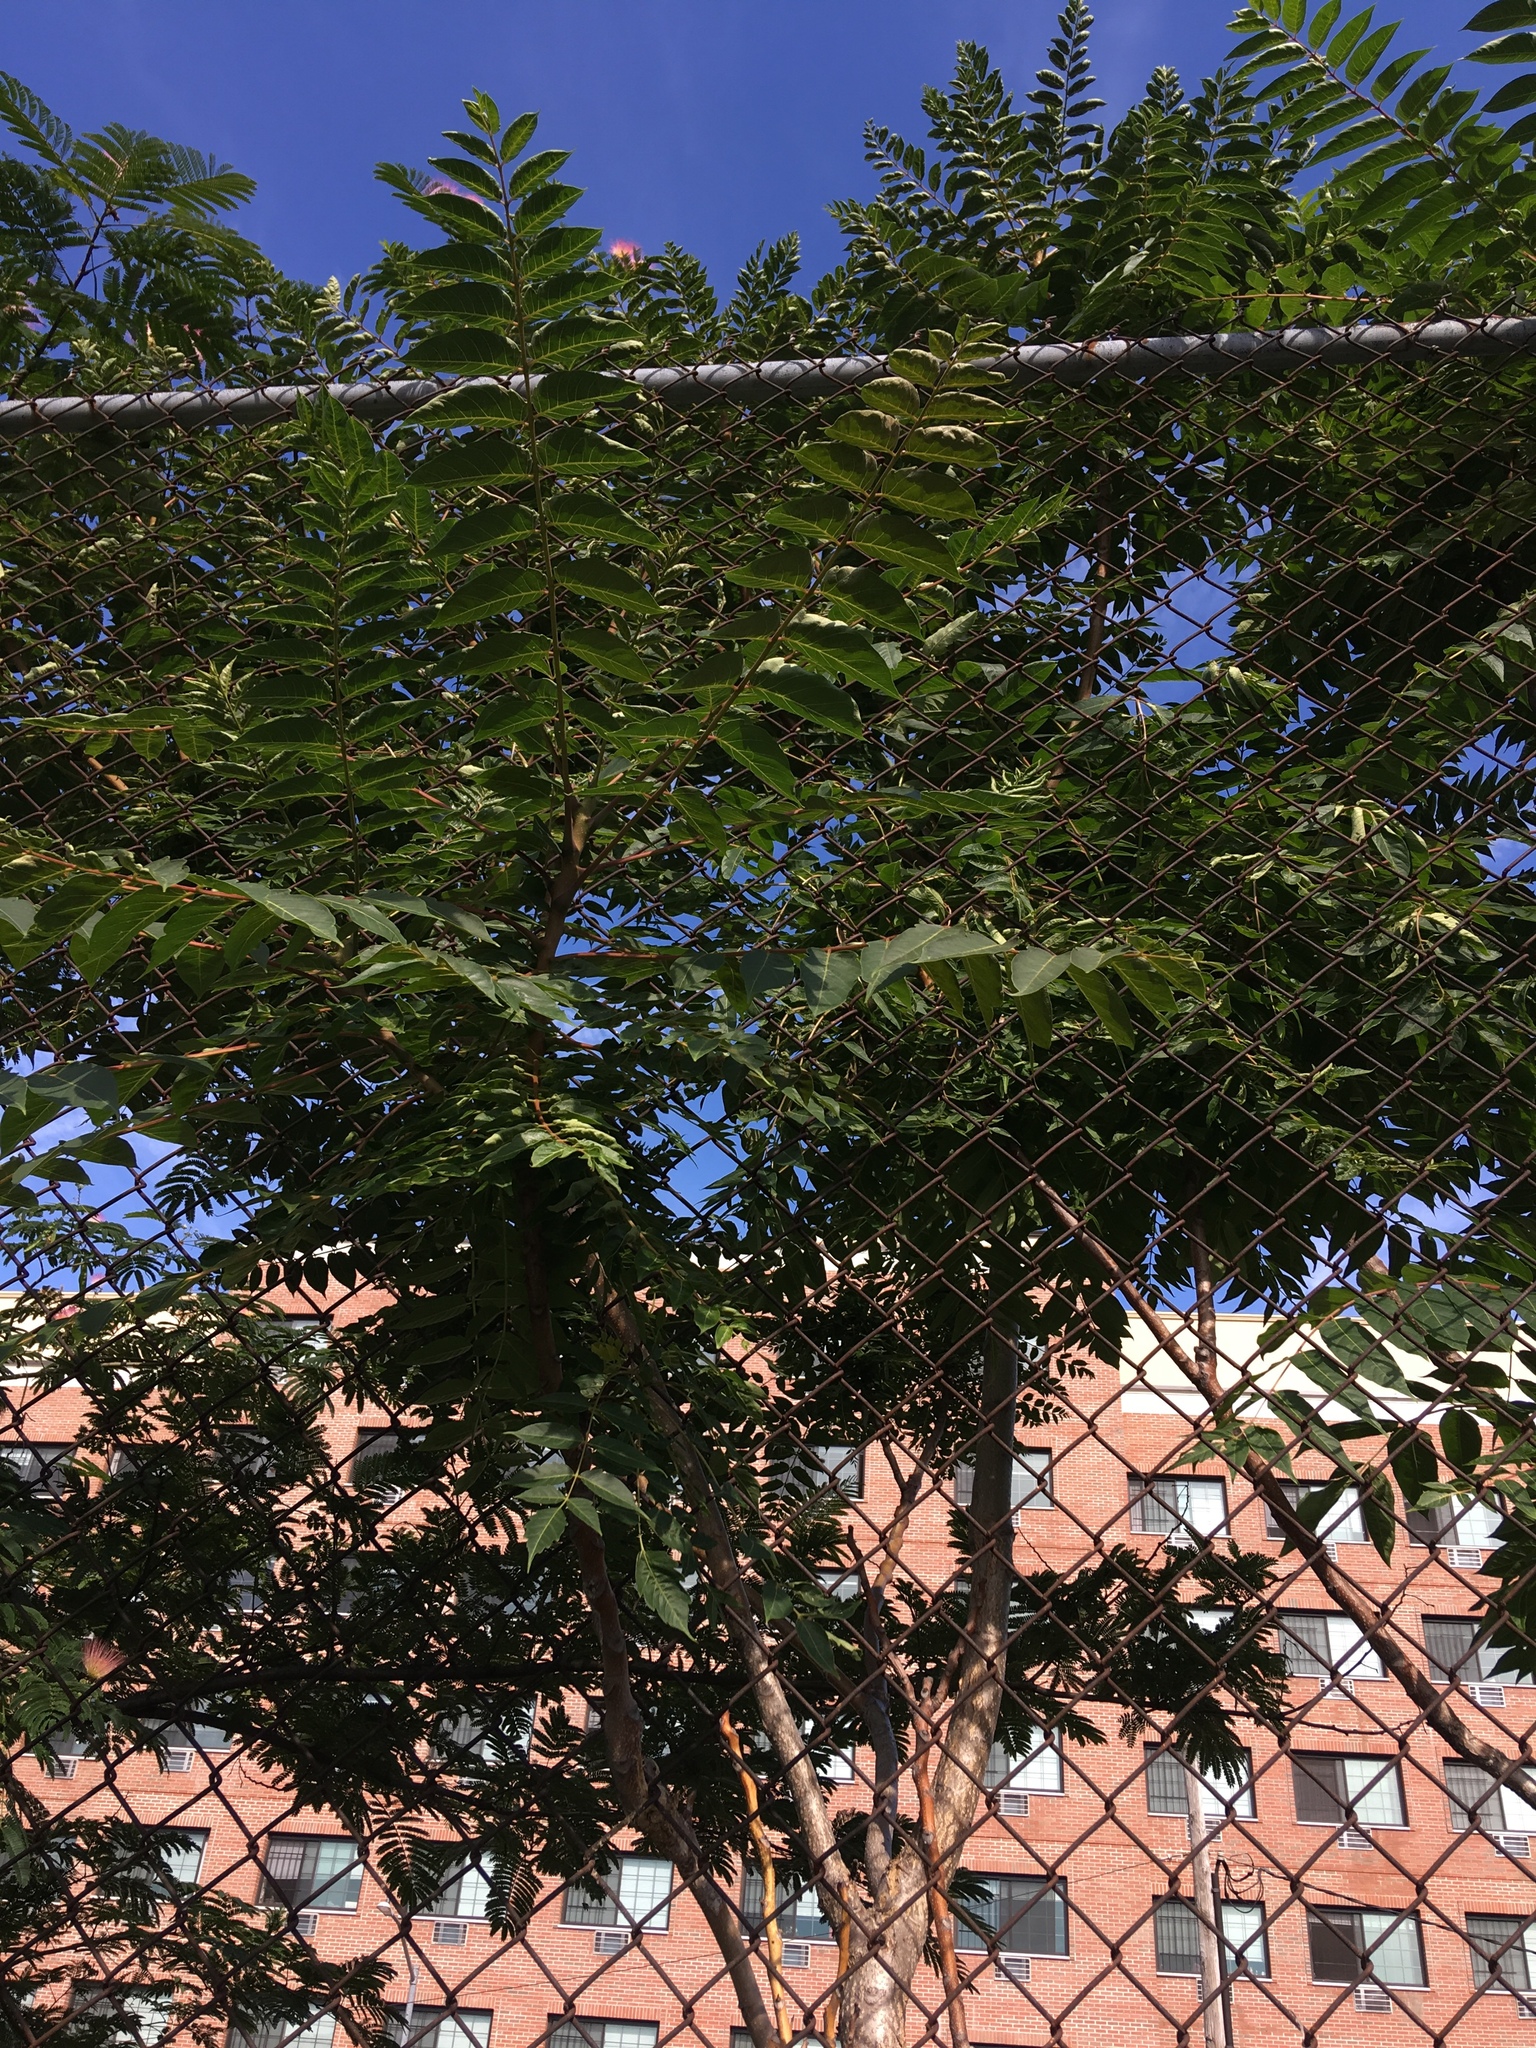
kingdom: Plantae
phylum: Tracheophyta
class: Magnoliopsida
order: Sapindales
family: Simaroubaceae
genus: Ailanthus
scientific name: Ailanthus altissima
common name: Tree-of-heaven
